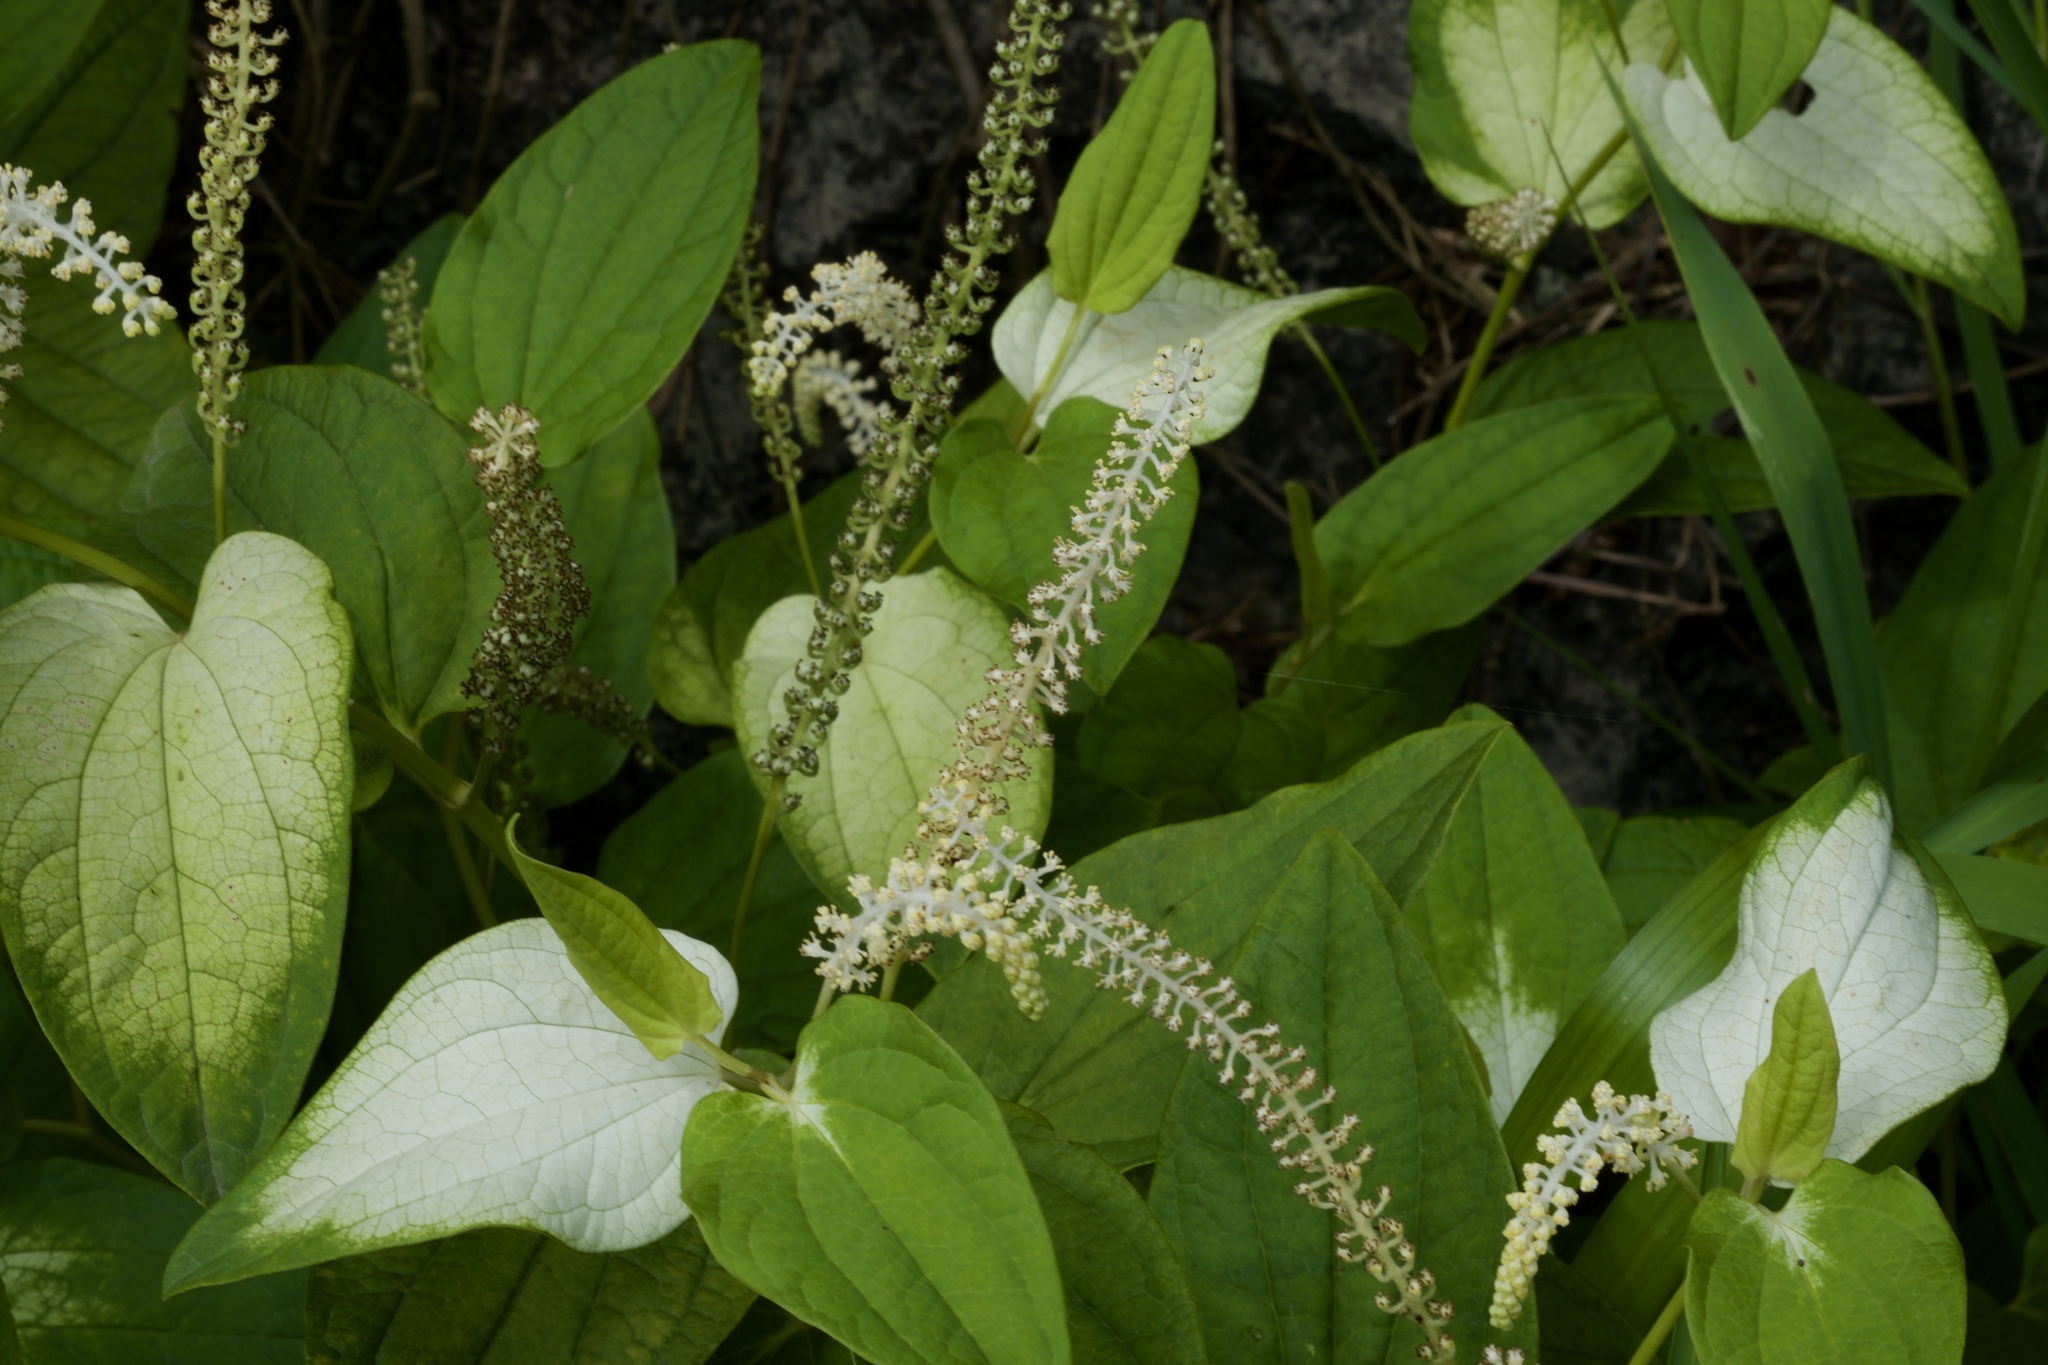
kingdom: Plantae
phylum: Tracheophyta
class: Magnoliopsida
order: Piperales
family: Saururaceae
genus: Saururus
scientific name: Saururus chinensis
